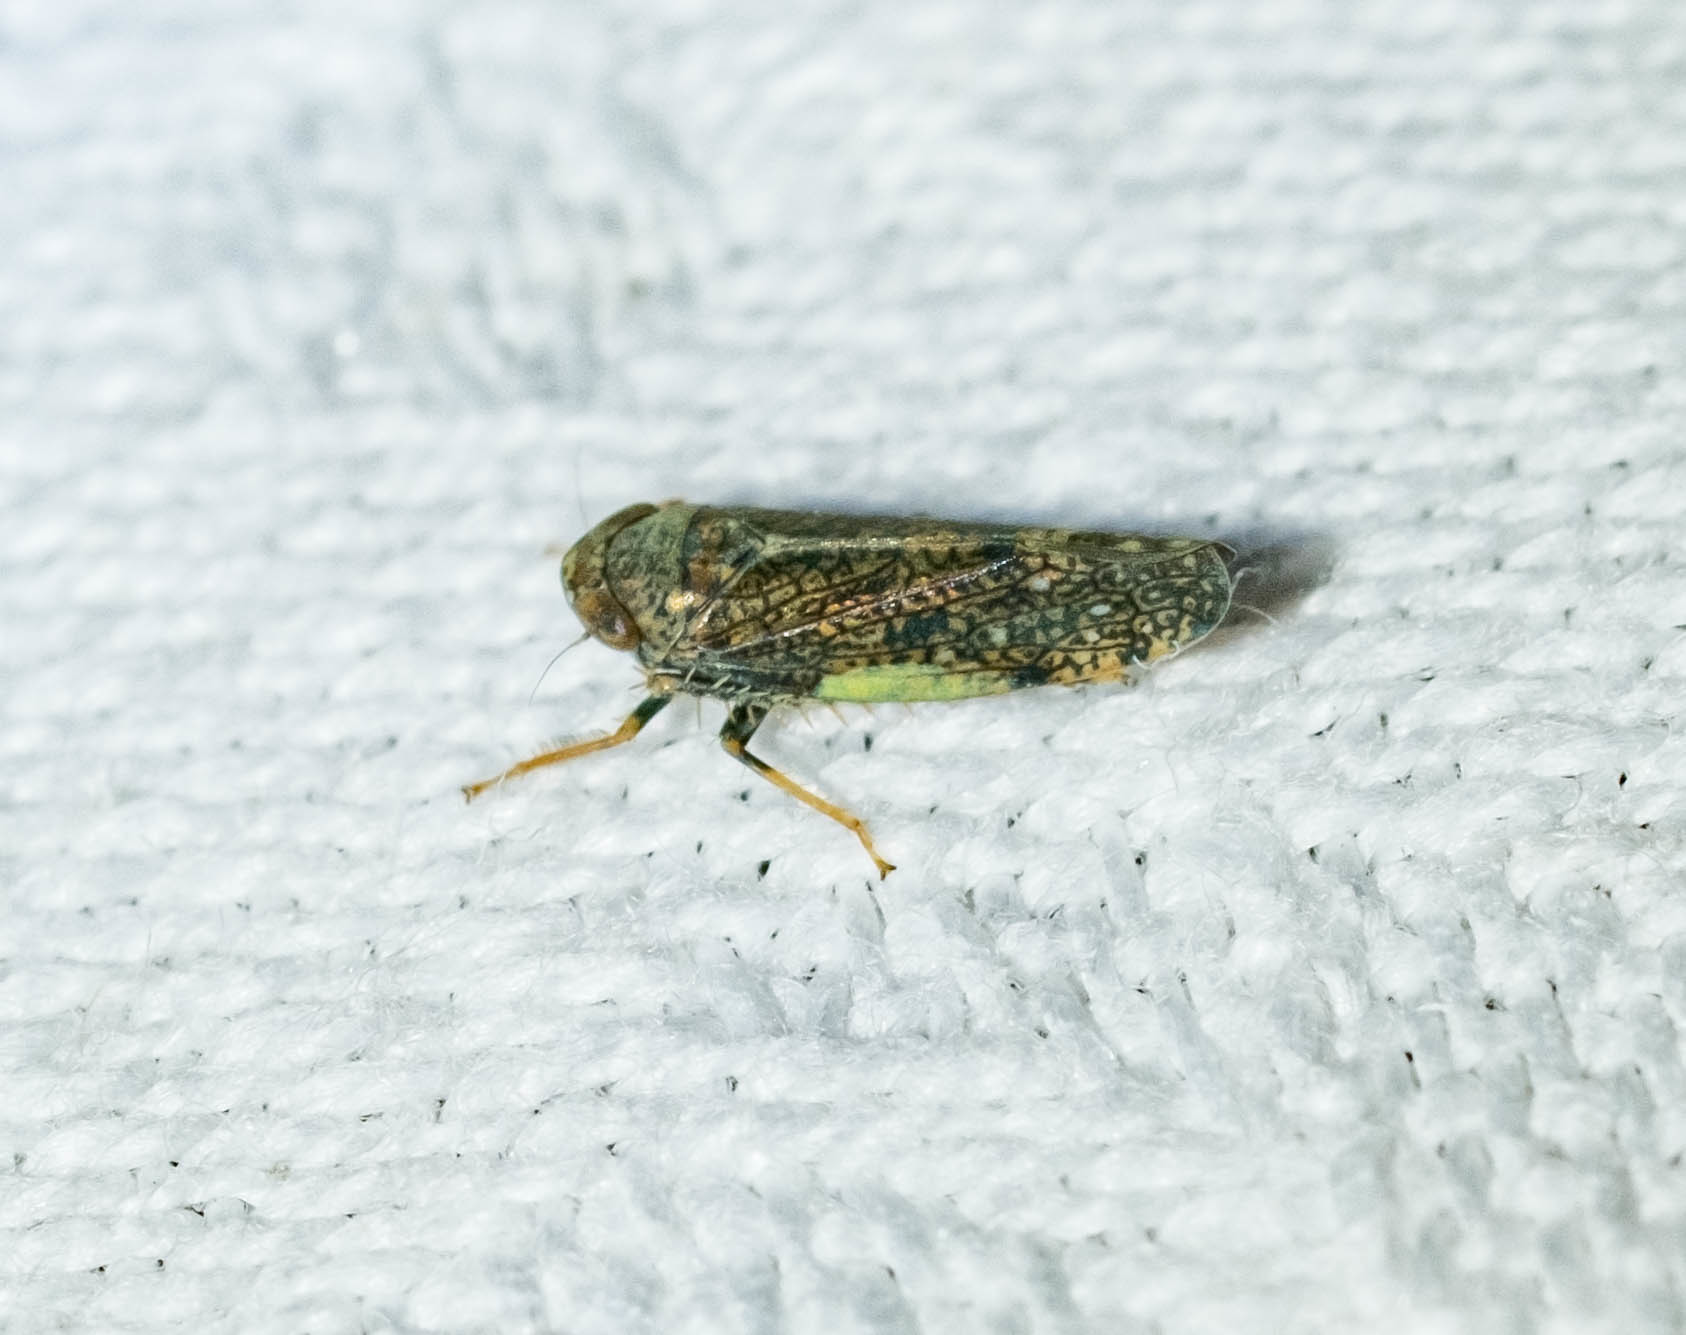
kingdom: Animalia
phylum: Arthropoda
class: Insecta
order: Hemiptera
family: Cicadellidae
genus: Orientus
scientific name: Orientus ishidae
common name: Japanese leafhopper
